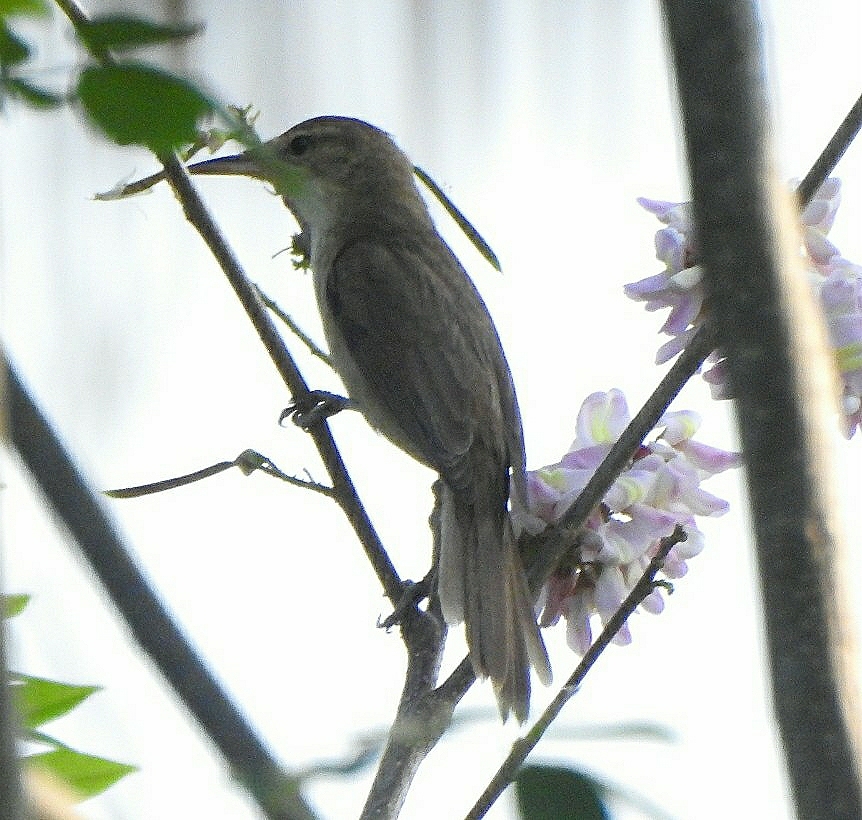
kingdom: Animalia
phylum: Chordata
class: Aves
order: Passeriformes
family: Acrocephalidae
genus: Acrocephalus
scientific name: Acrocephalus stentoreus
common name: Clamorous reed warbler
